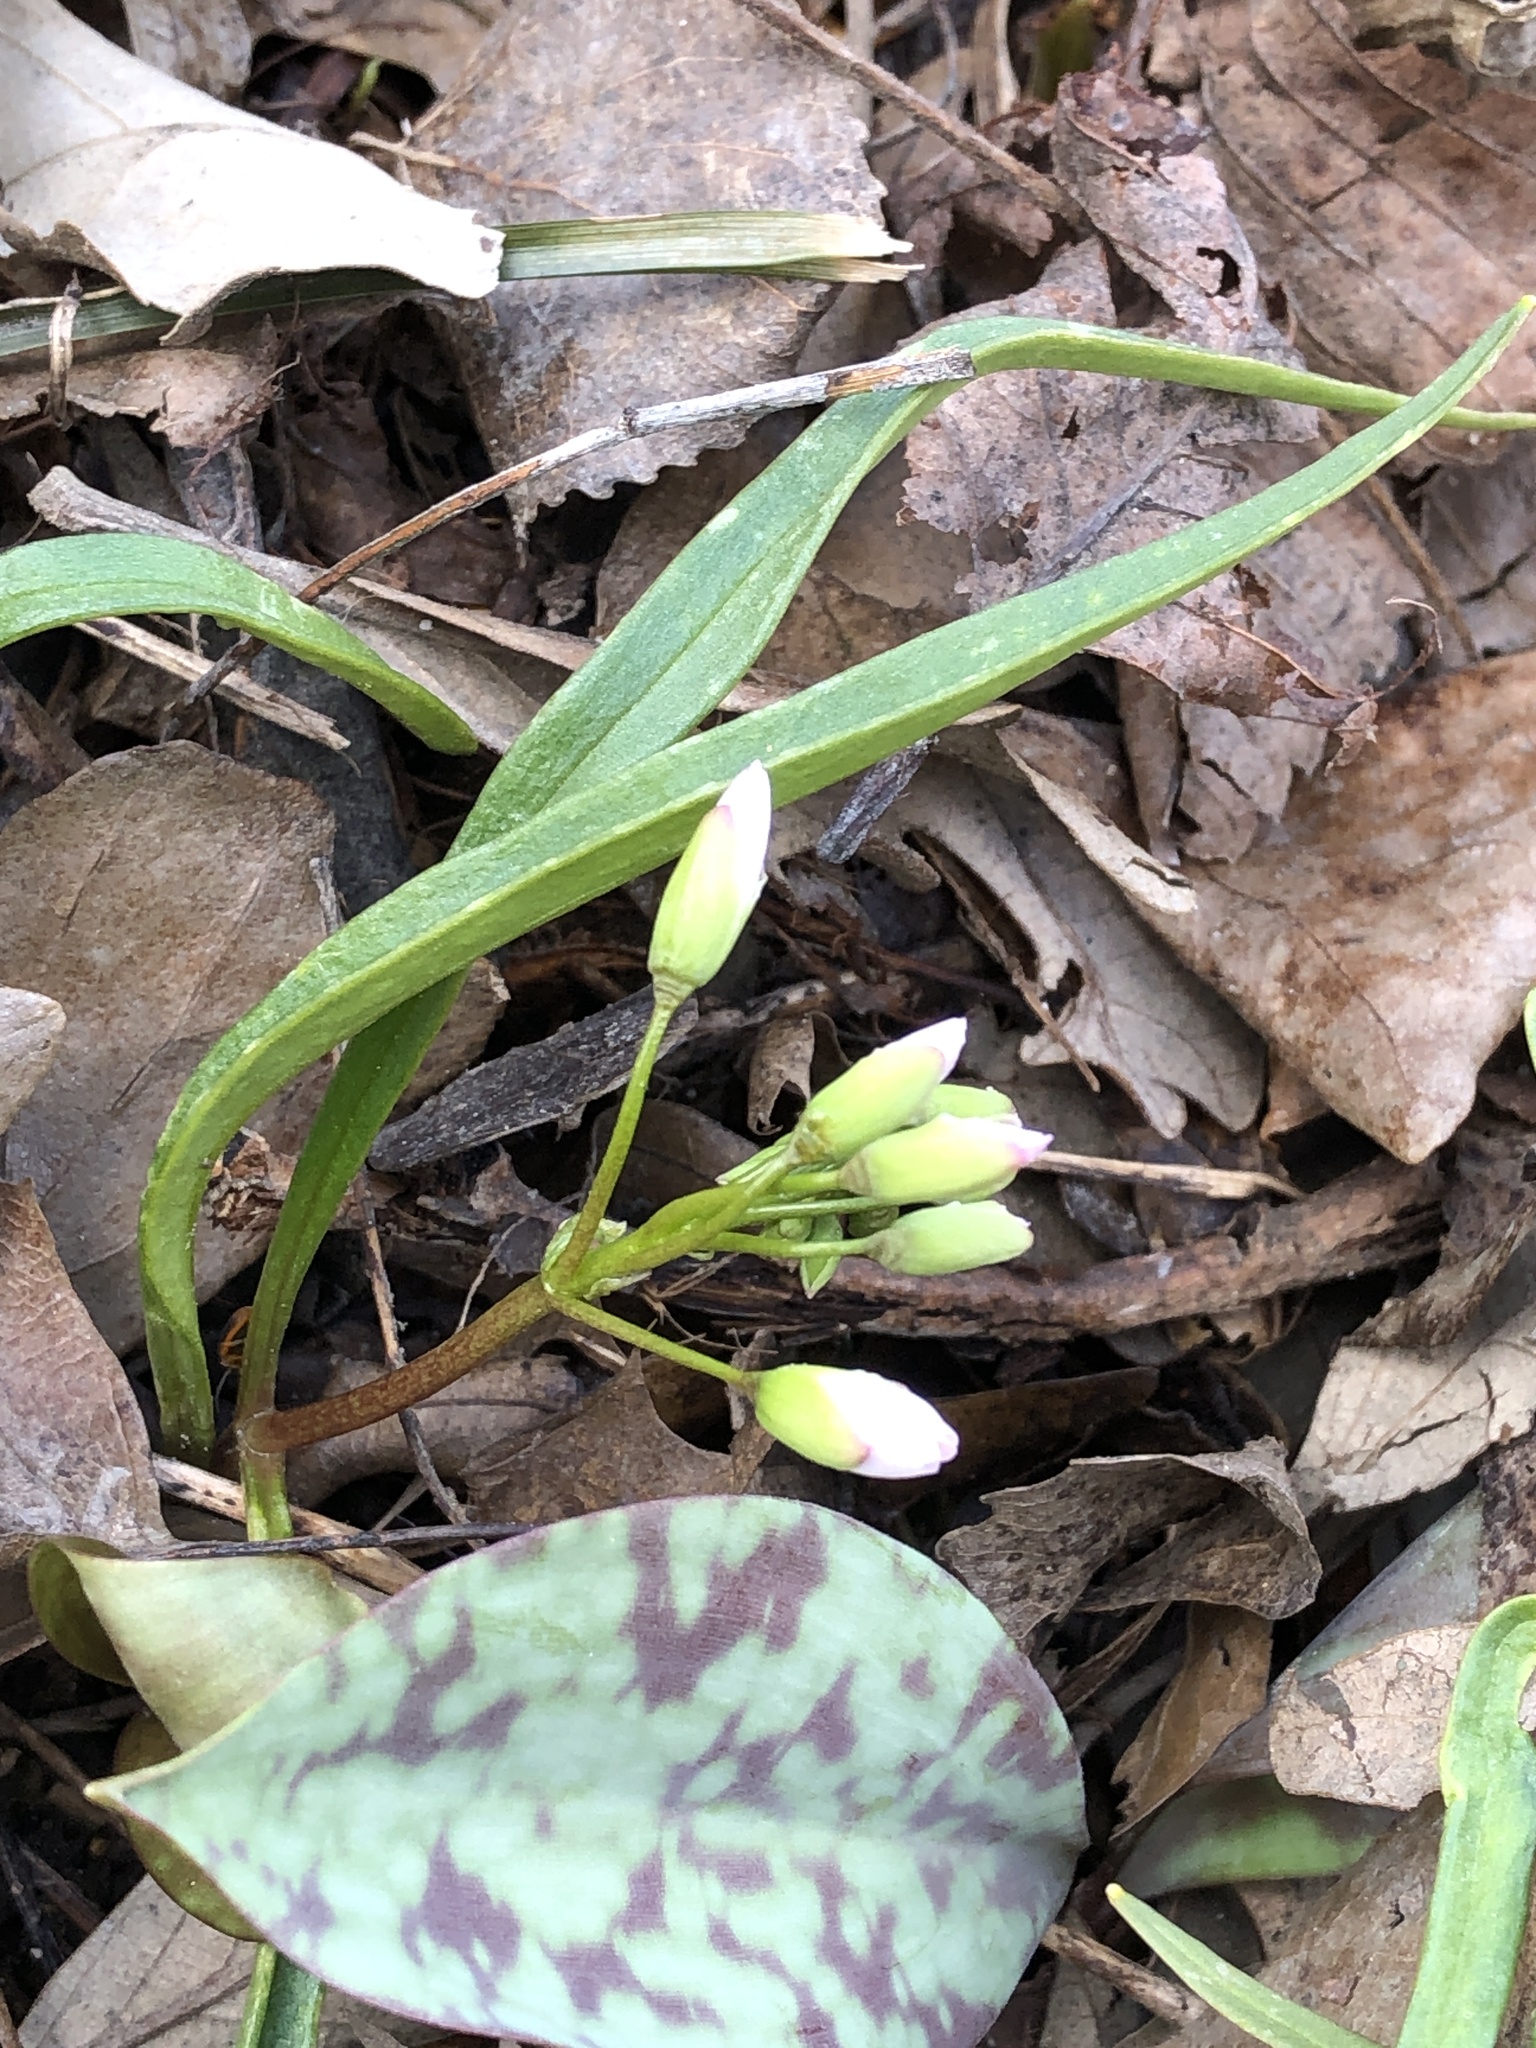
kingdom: Plantae
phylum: Tracheophyta
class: Magnoliopsida
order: Caryophyllales
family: Montiaceae
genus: Claytonia
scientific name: Claytonia virginica
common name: Virginia springbeauty
